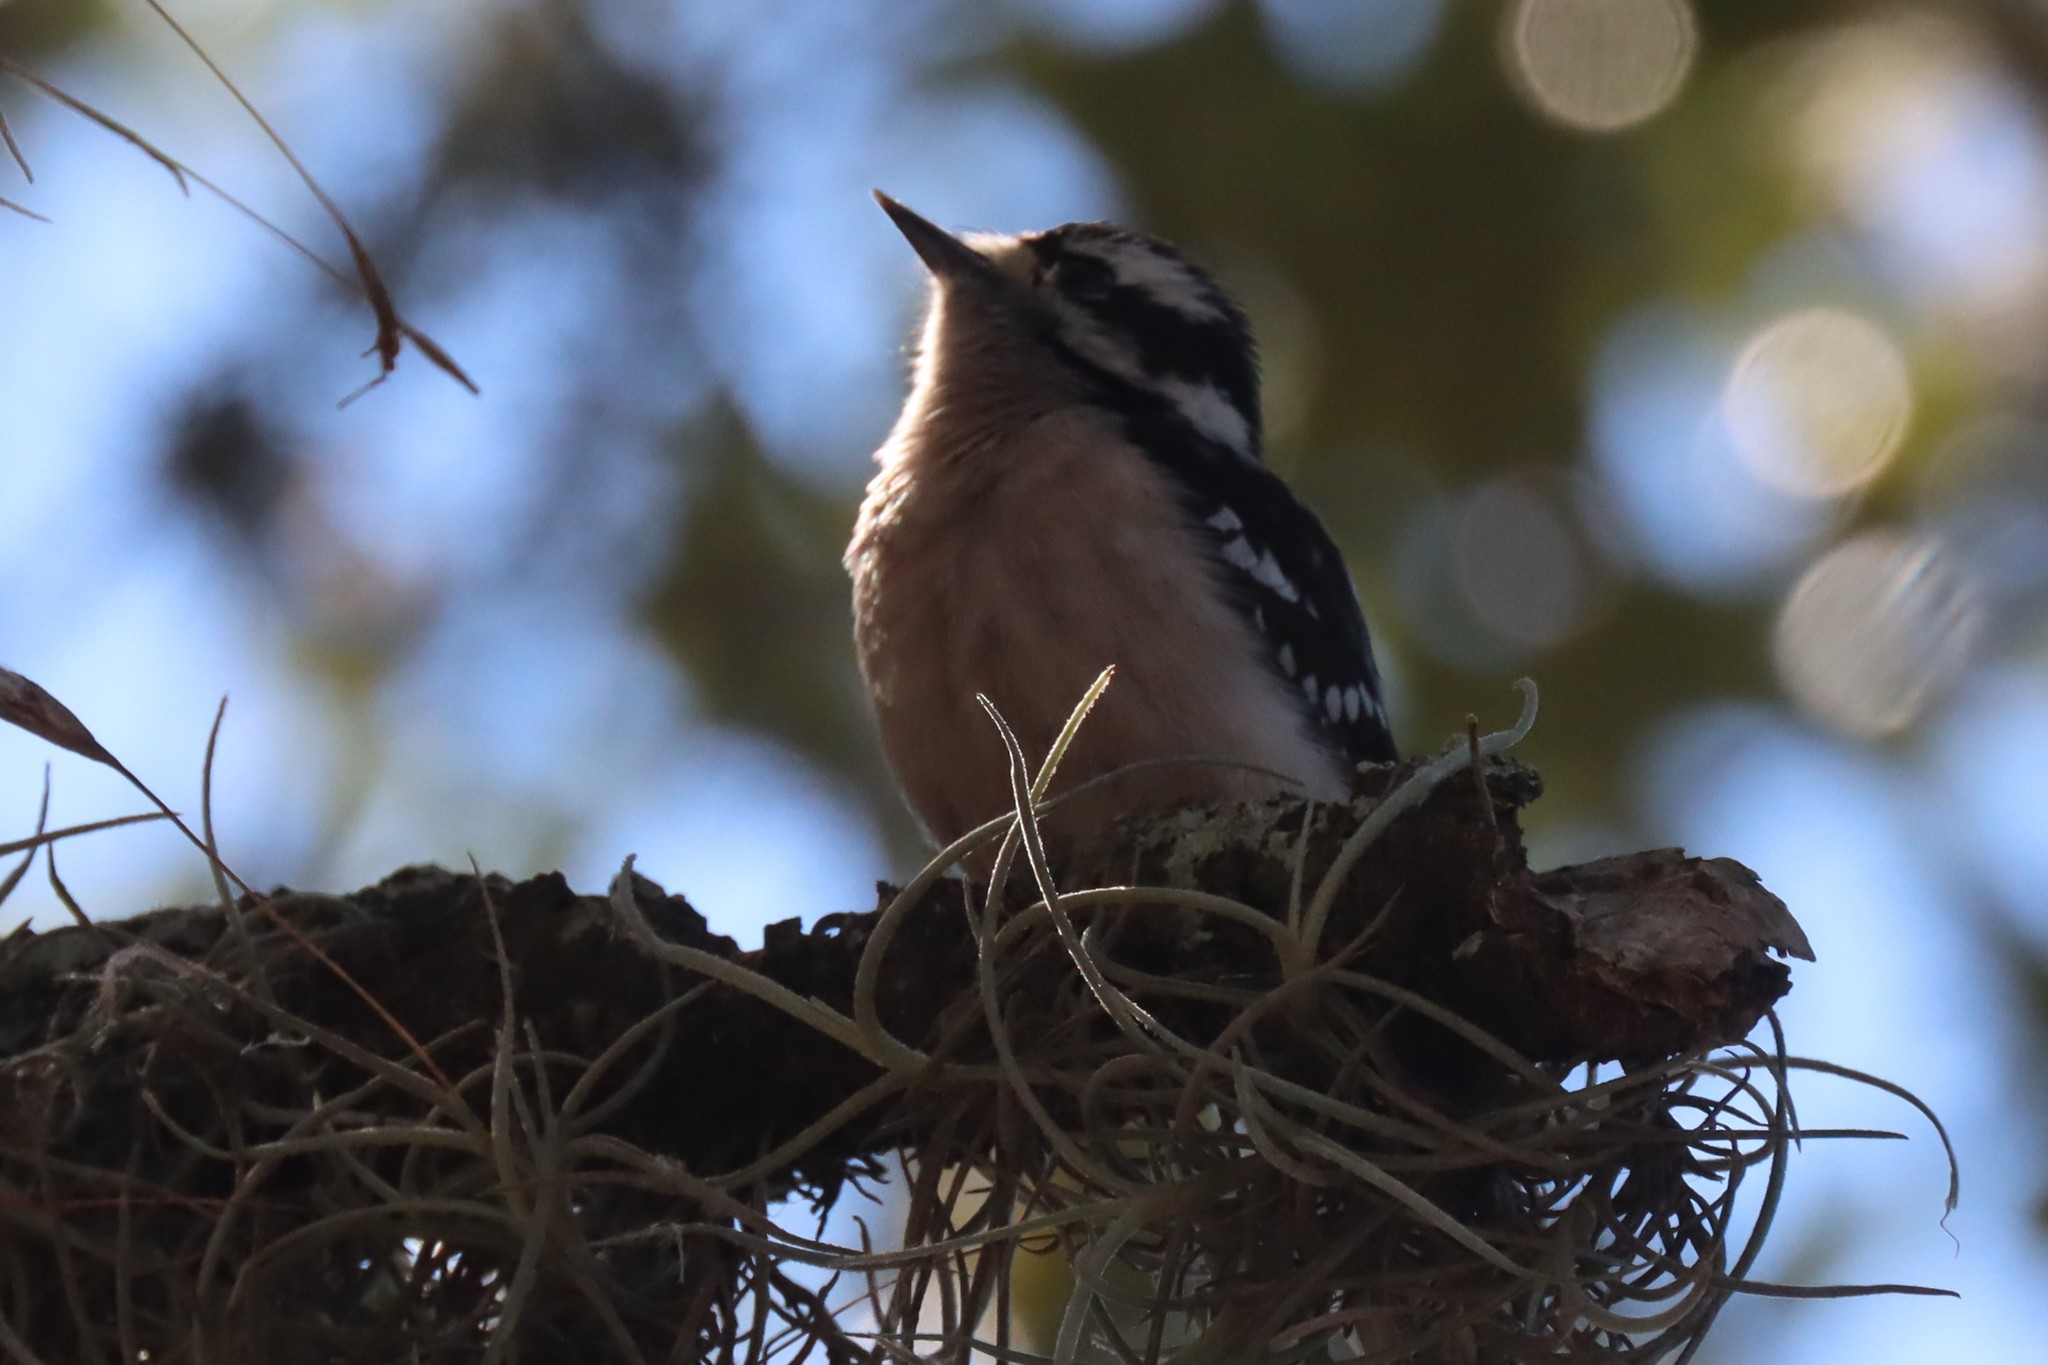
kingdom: Animalia
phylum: Chordata
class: Aves
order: Piciformes
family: Picidae
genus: Dryobates
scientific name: Dryobates pubescens
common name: Downy woodpecker
